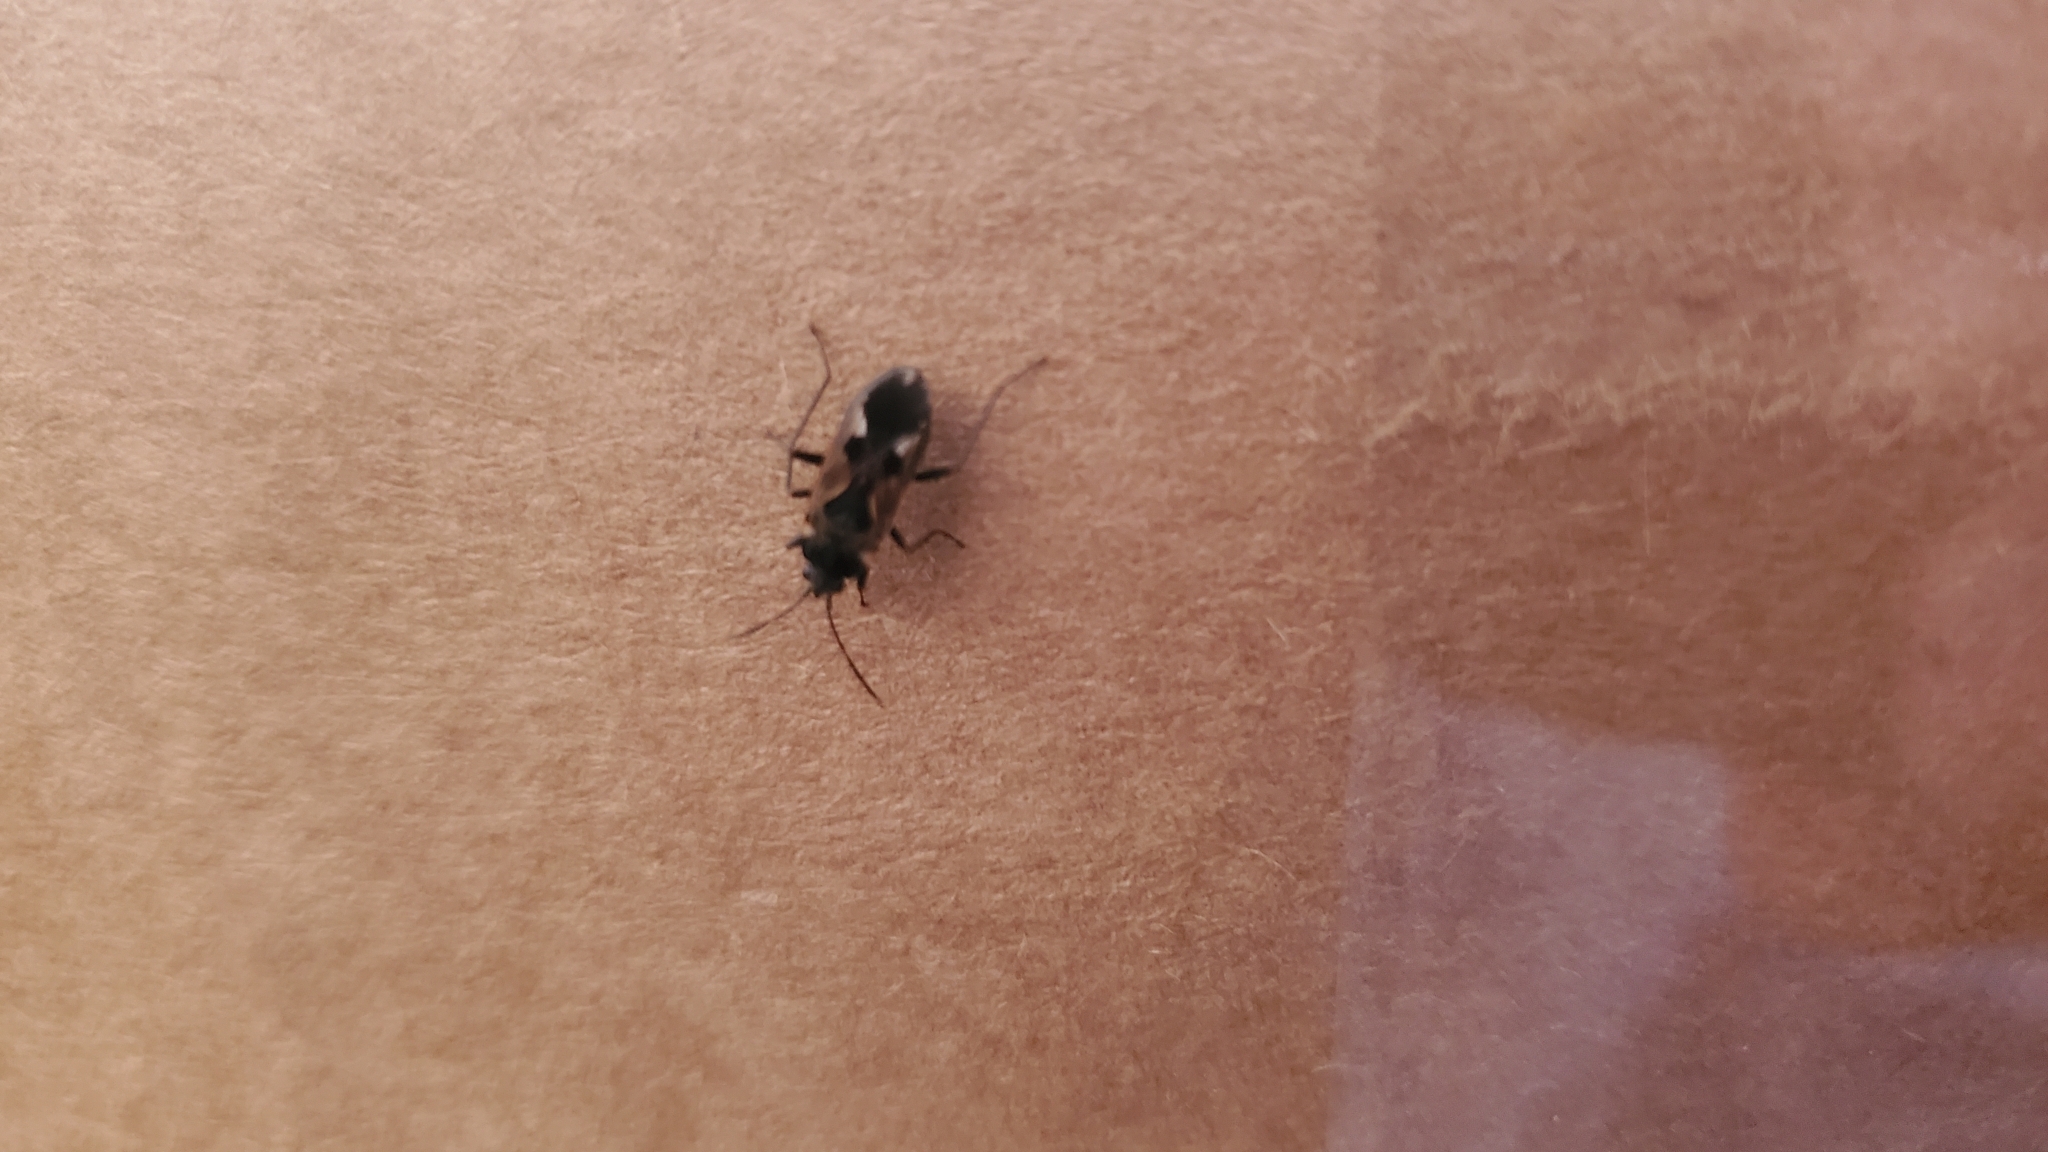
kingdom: Animalia
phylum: Arthropoda
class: Insecta
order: Hemiptera
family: Rhyparochromidae
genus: Rhyparochromus
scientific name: Rhyparochromus vulgaris
